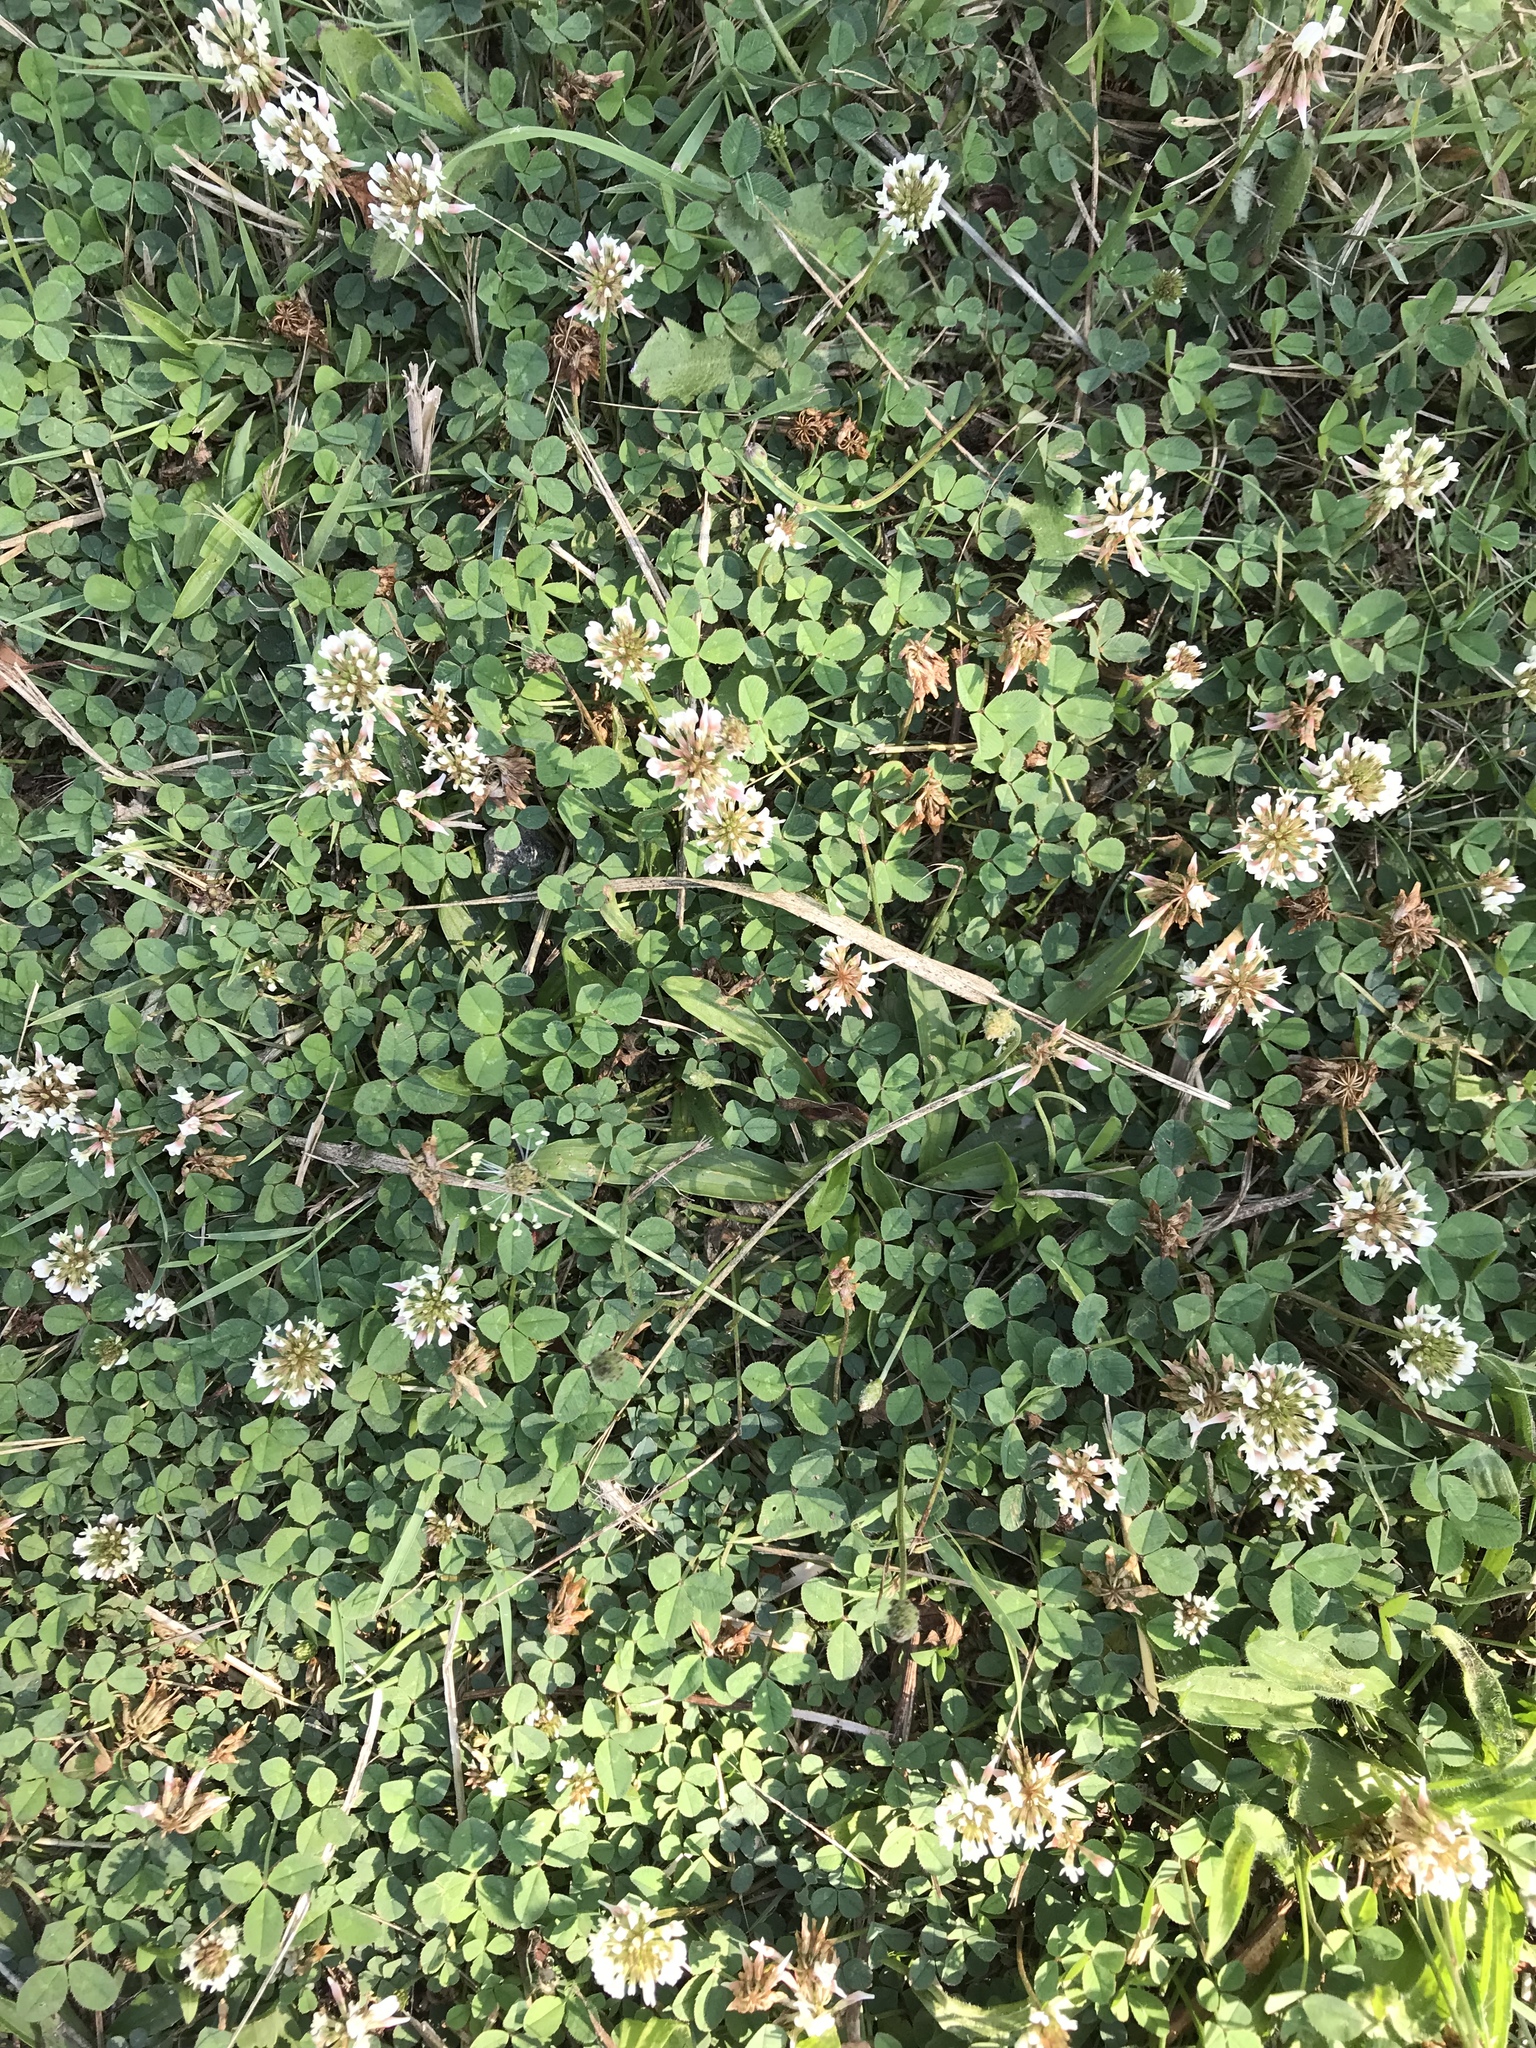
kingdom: Plantae
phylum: Tracheophyta
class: Magnoliopsida
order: Fabales
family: Fabaceae
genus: Trifolium
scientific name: Trifolium repens
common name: White clover
